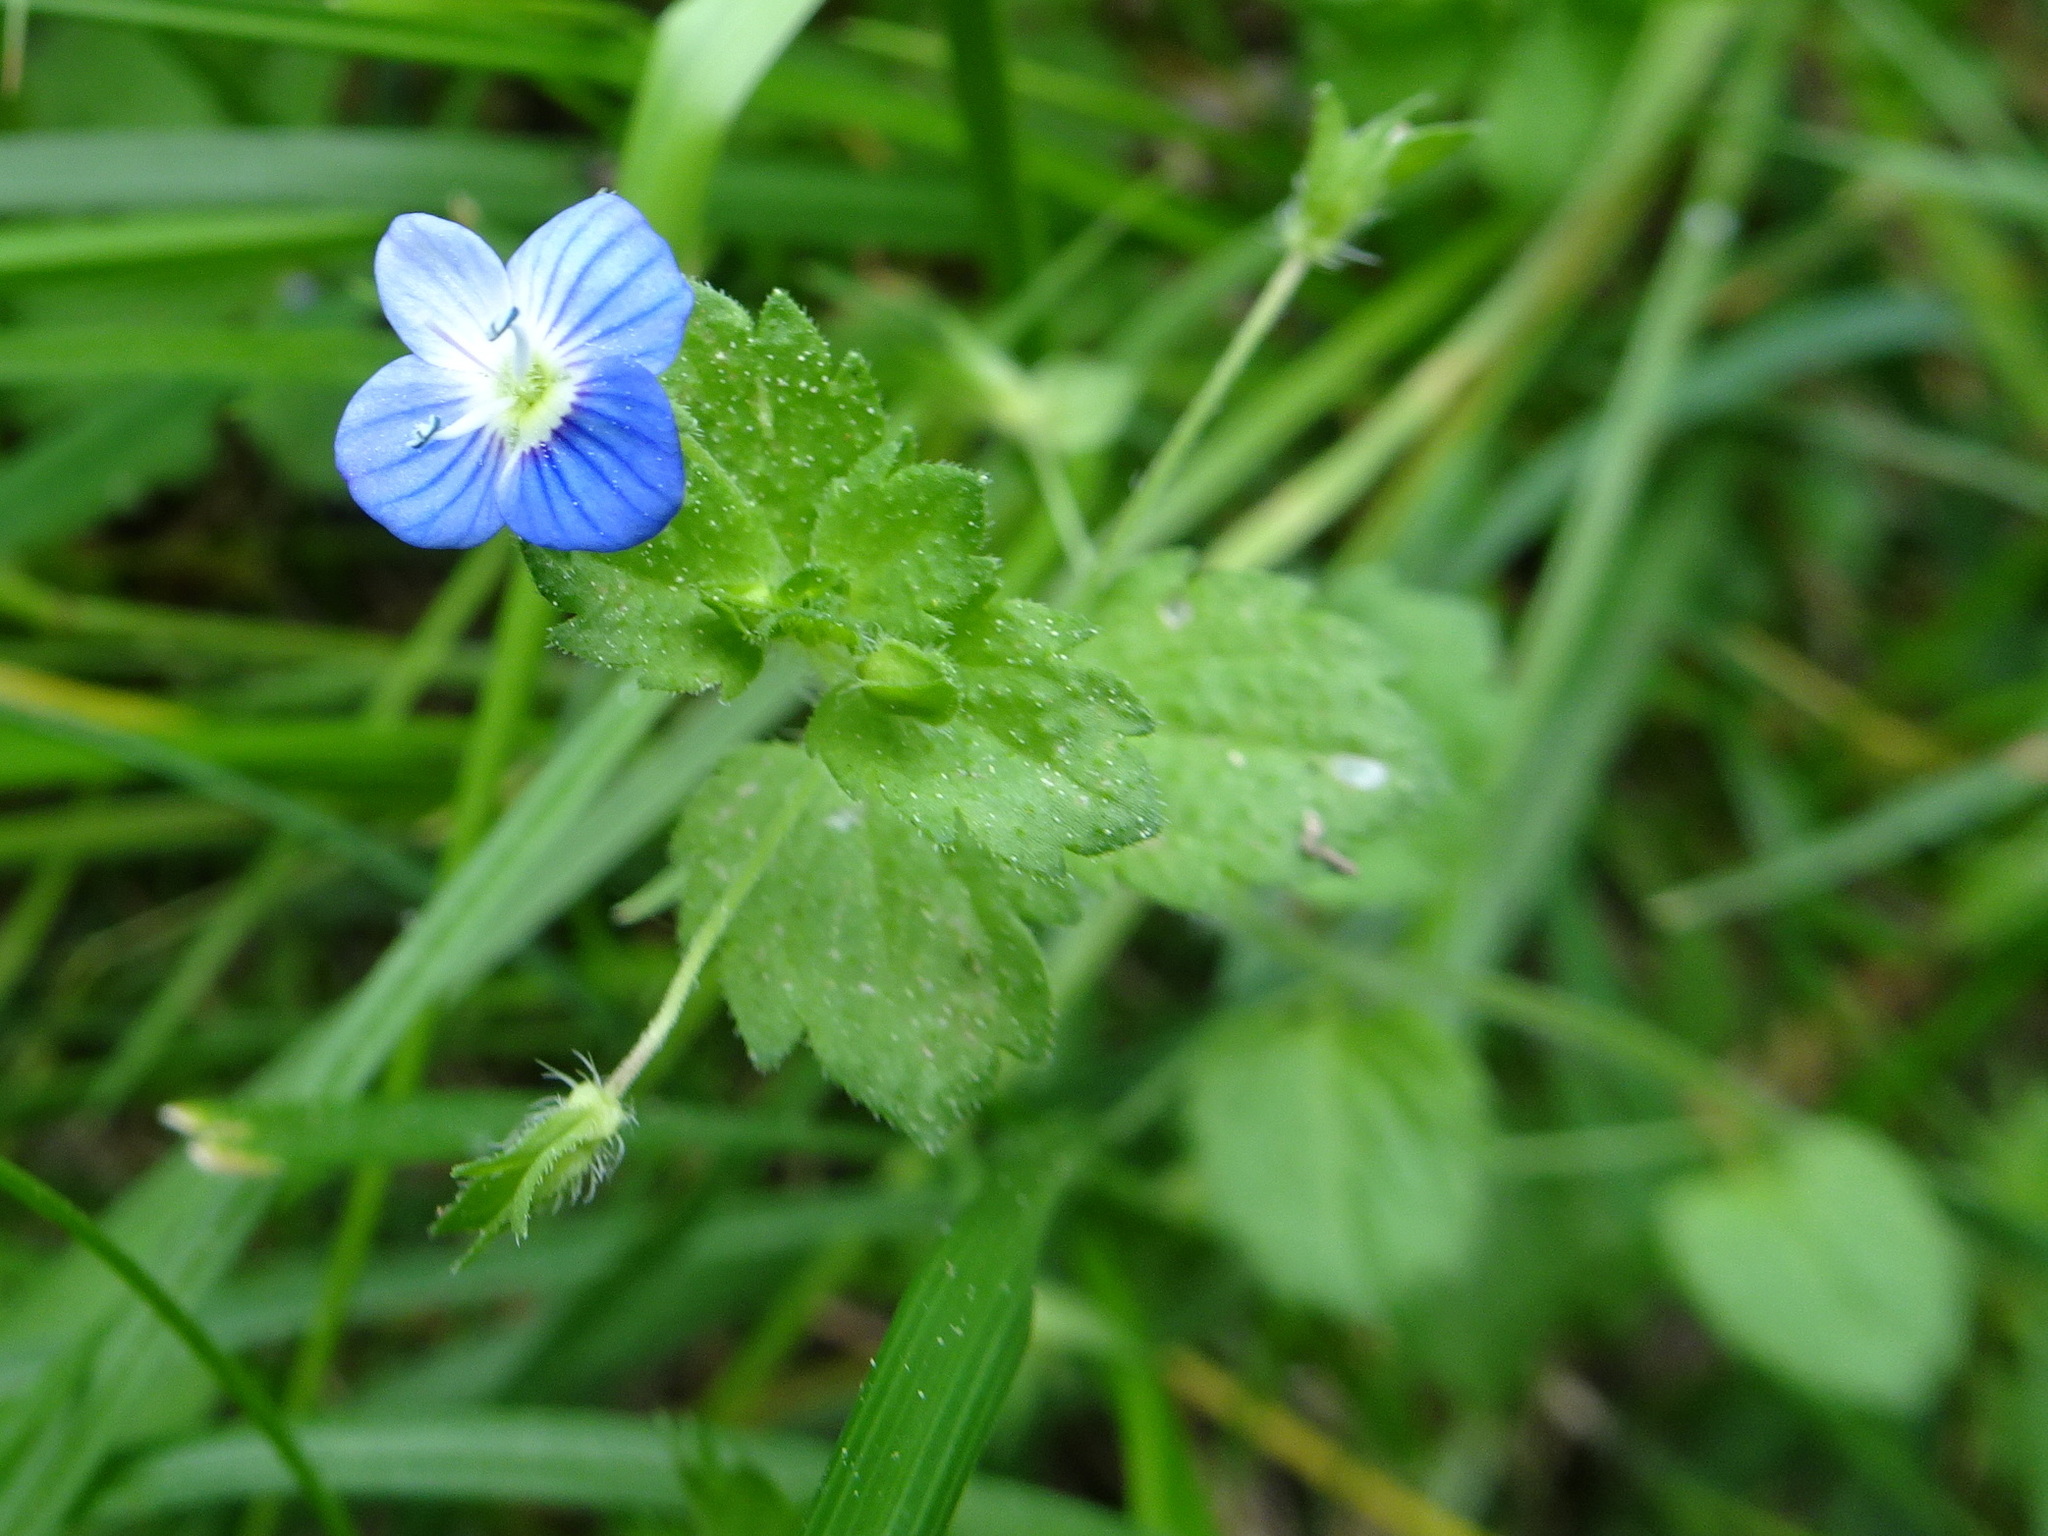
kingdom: Plantae
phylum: Tracheophyta
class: Magnoliopsida
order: Lamiales
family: Plantaginaceae
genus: Veronica
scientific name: Veronica persica
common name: Common field-speedwell
